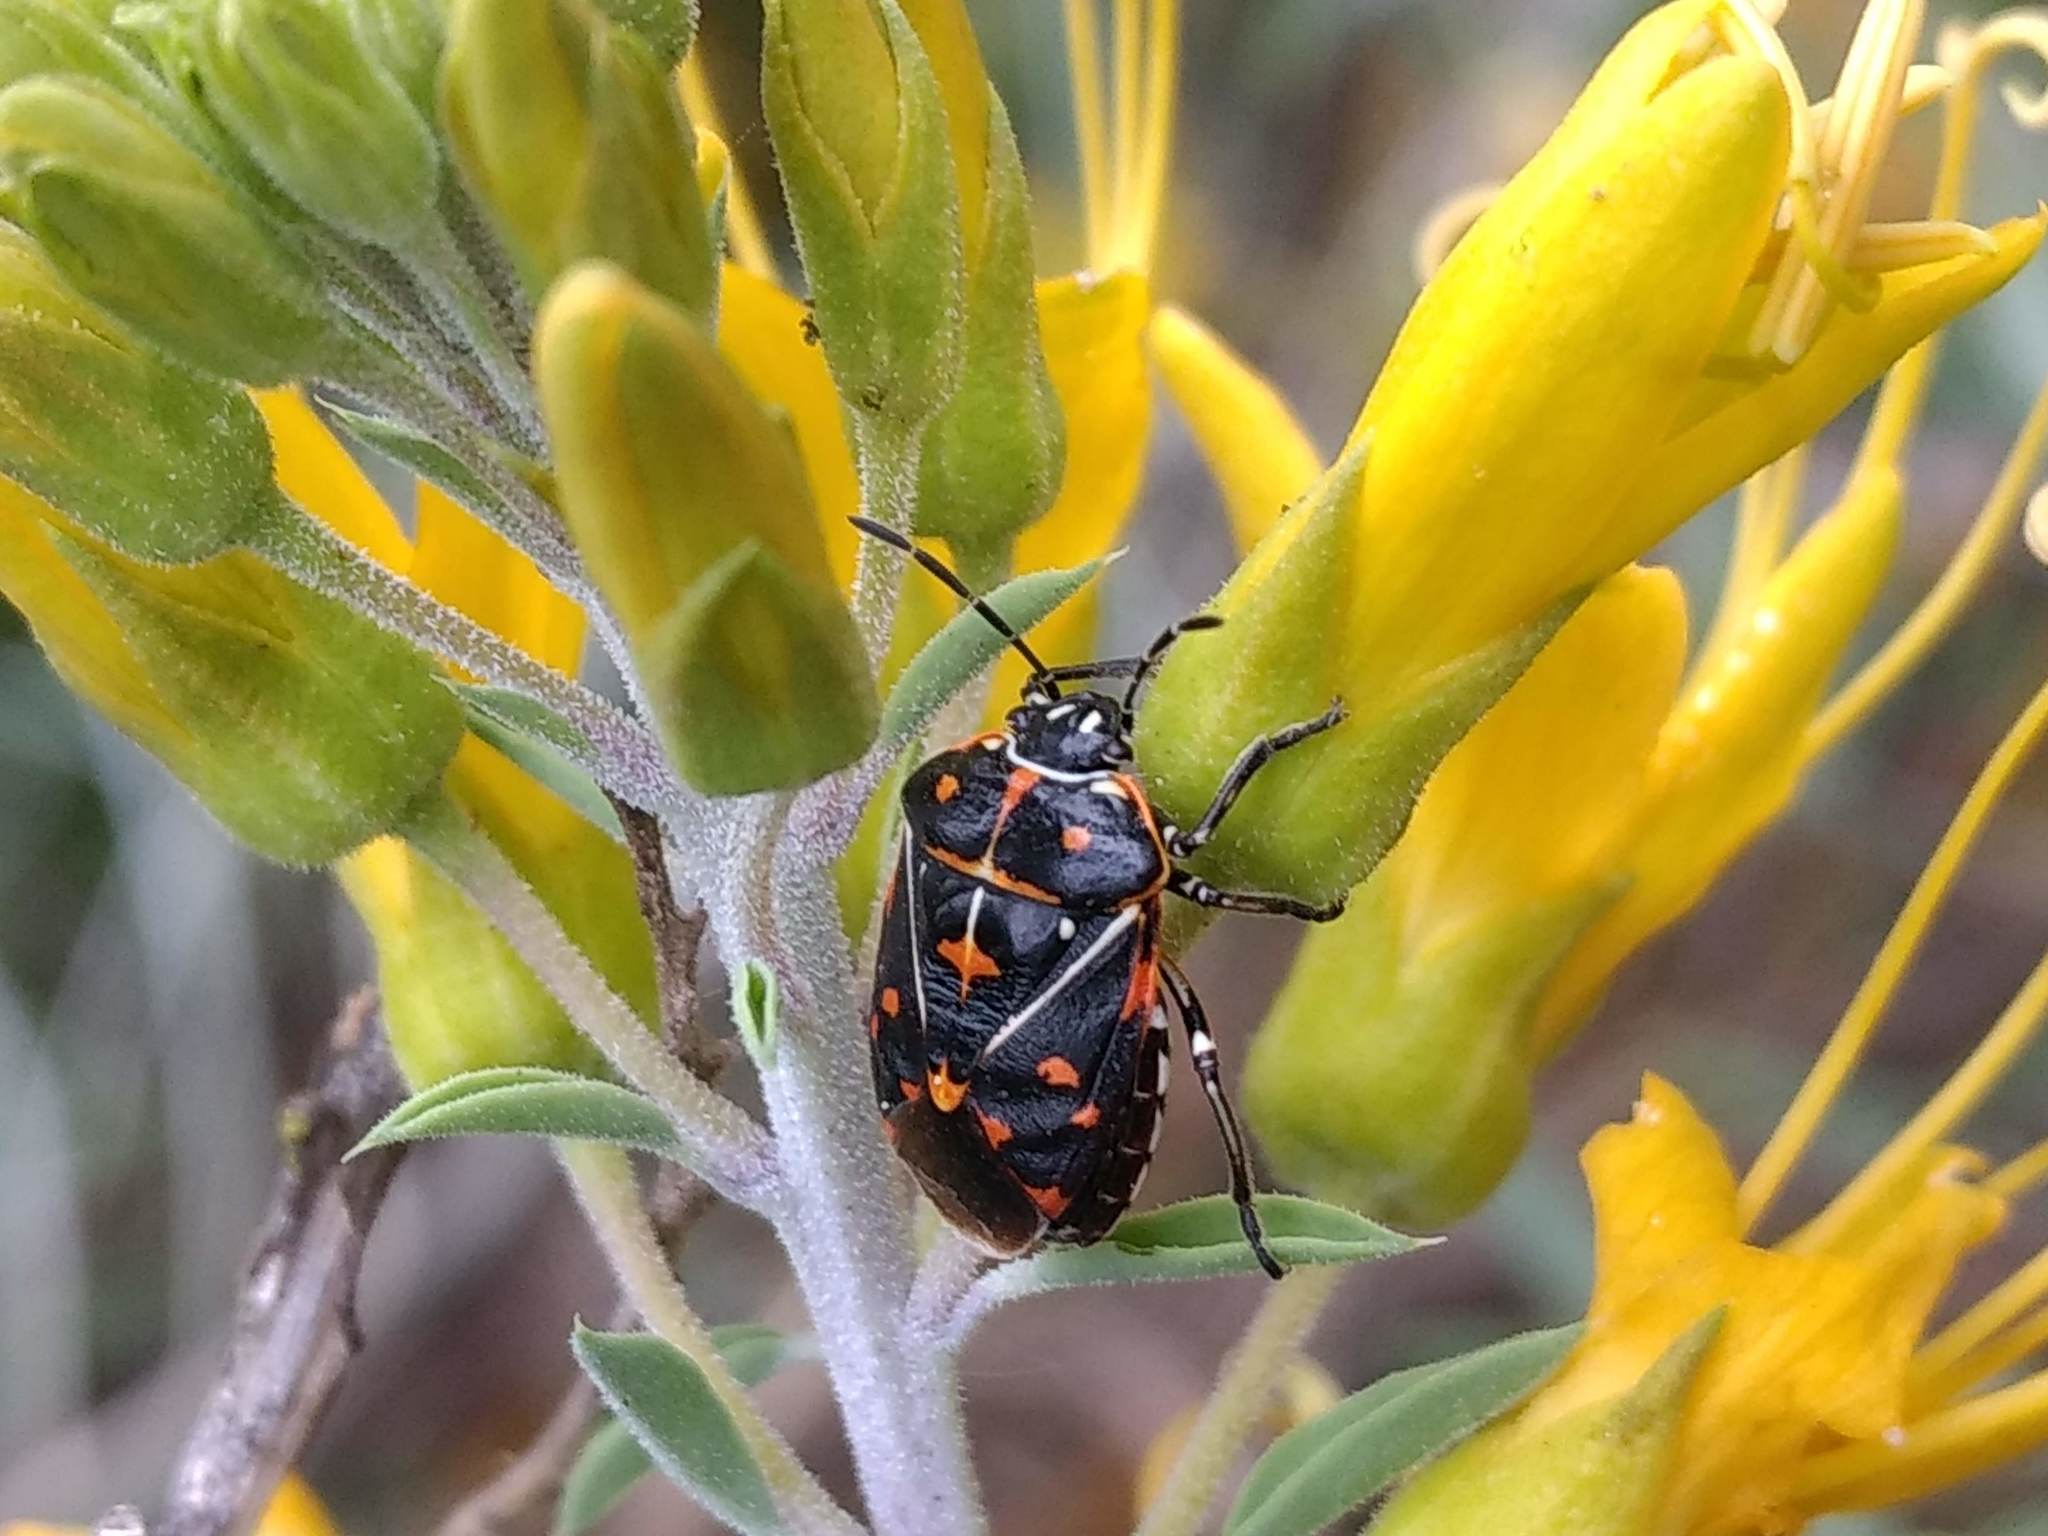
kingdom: Animalia
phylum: Arthropoda
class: Insecta
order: Hemiptera
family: Pentatomidae
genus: Murgantia
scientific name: Murgantia histrionica
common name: Harlequin bug
